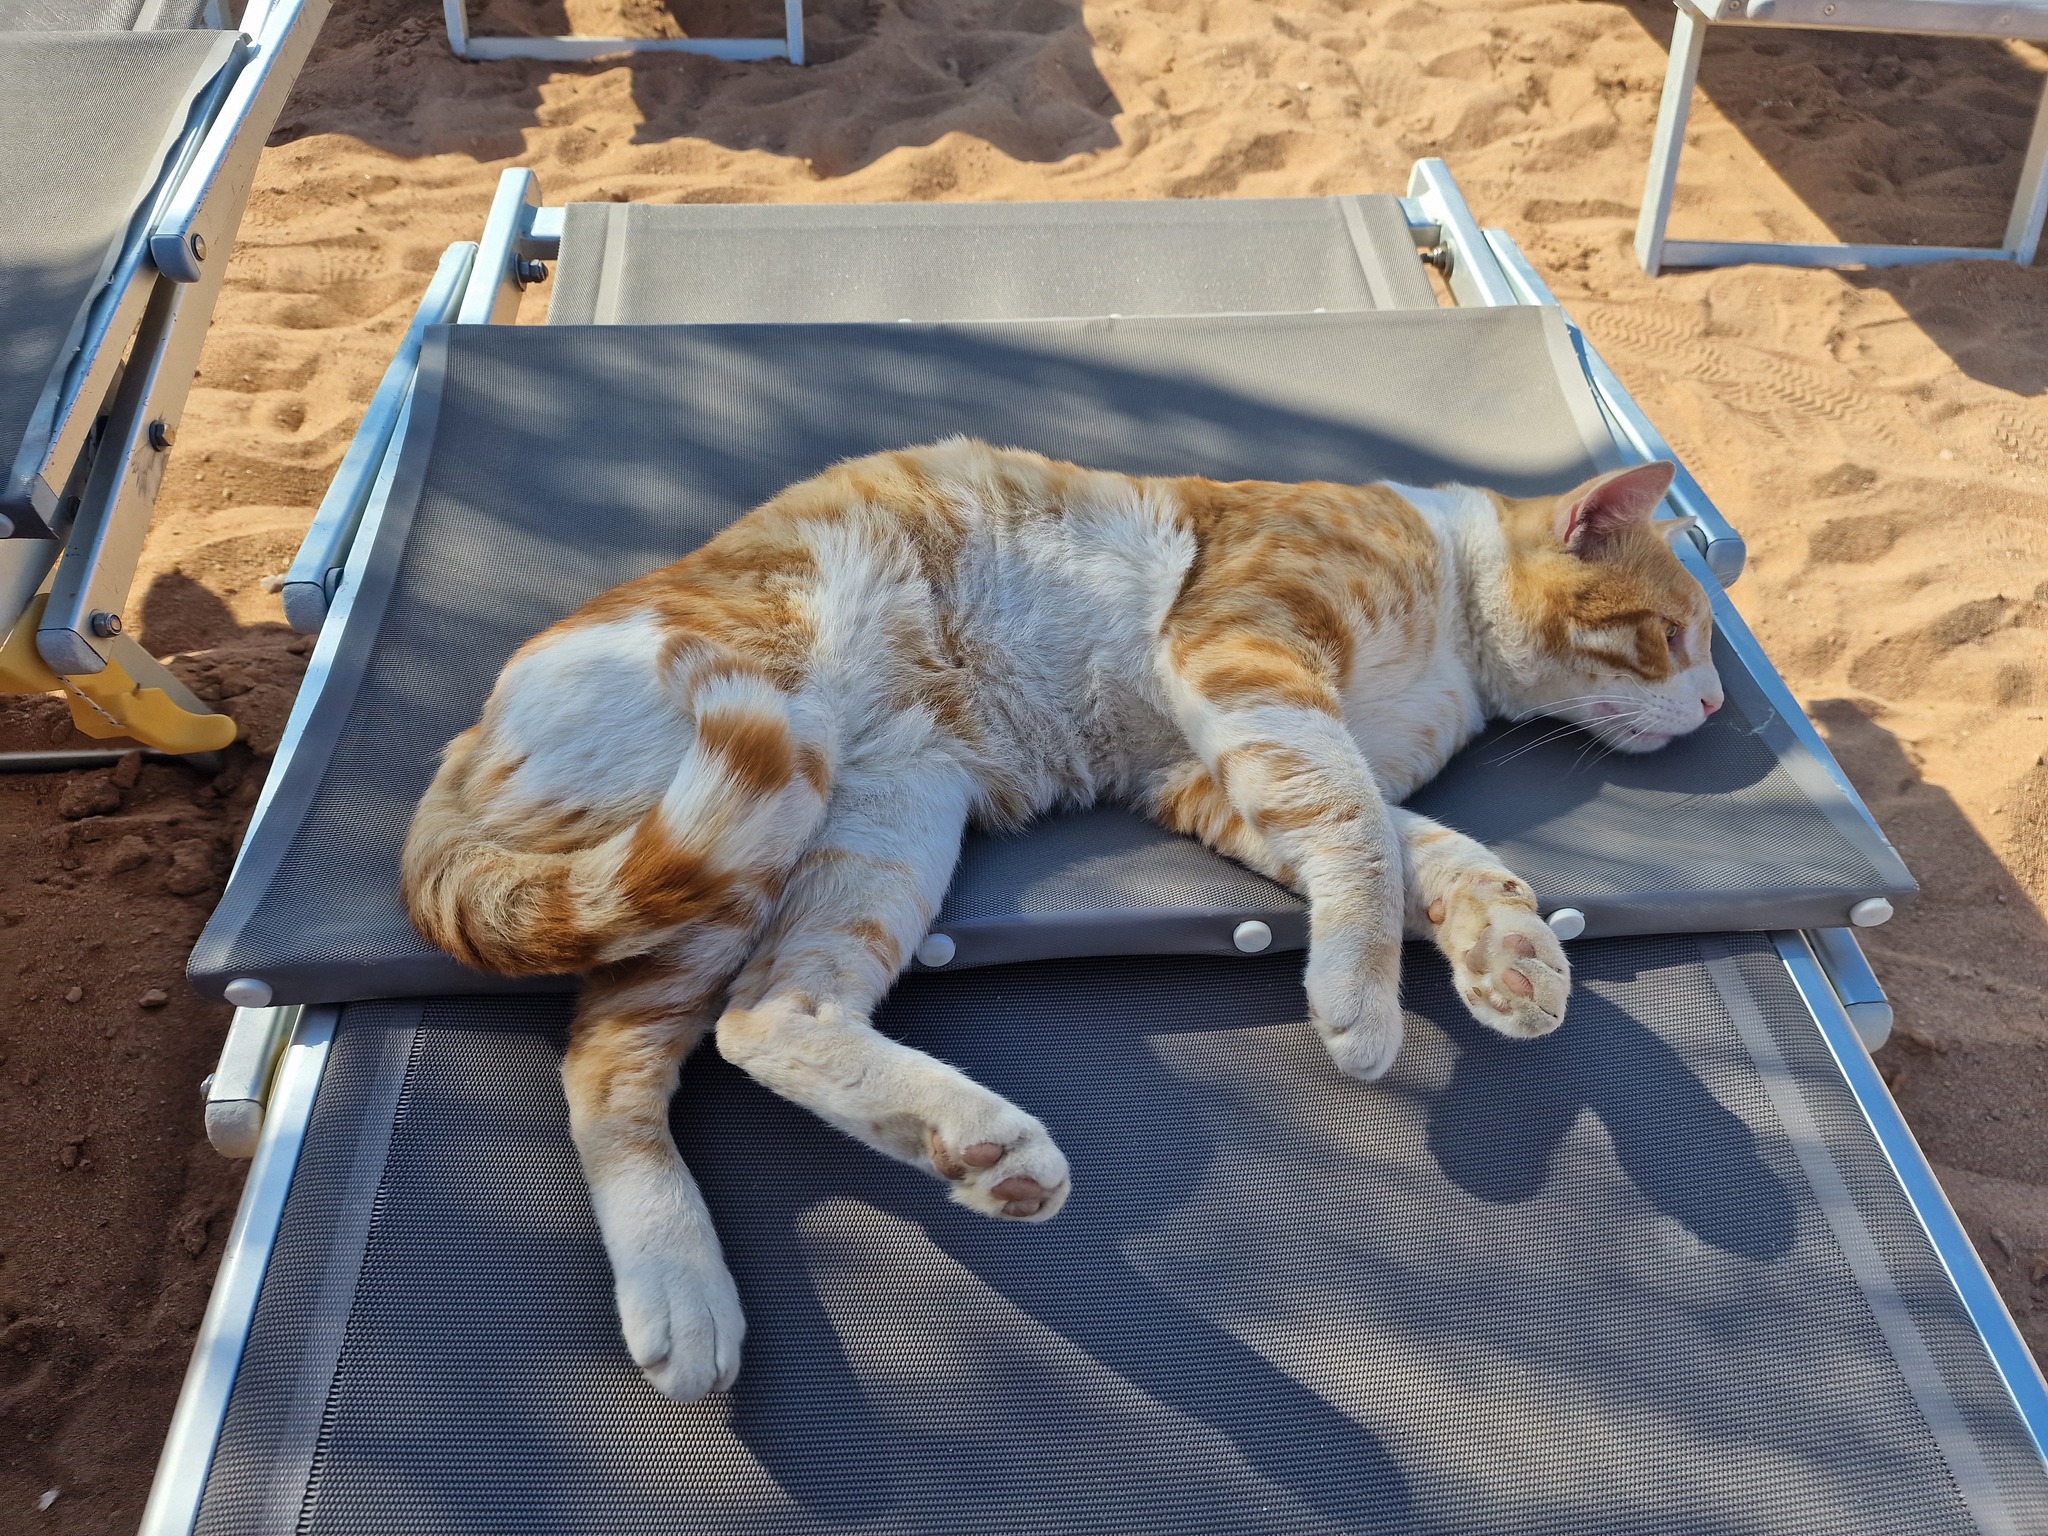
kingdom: Animalia
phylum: Chordata
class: Mammalia
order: Carnivora
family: Felidae
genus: Felis
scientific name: Felis catus
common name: Domestic cat
